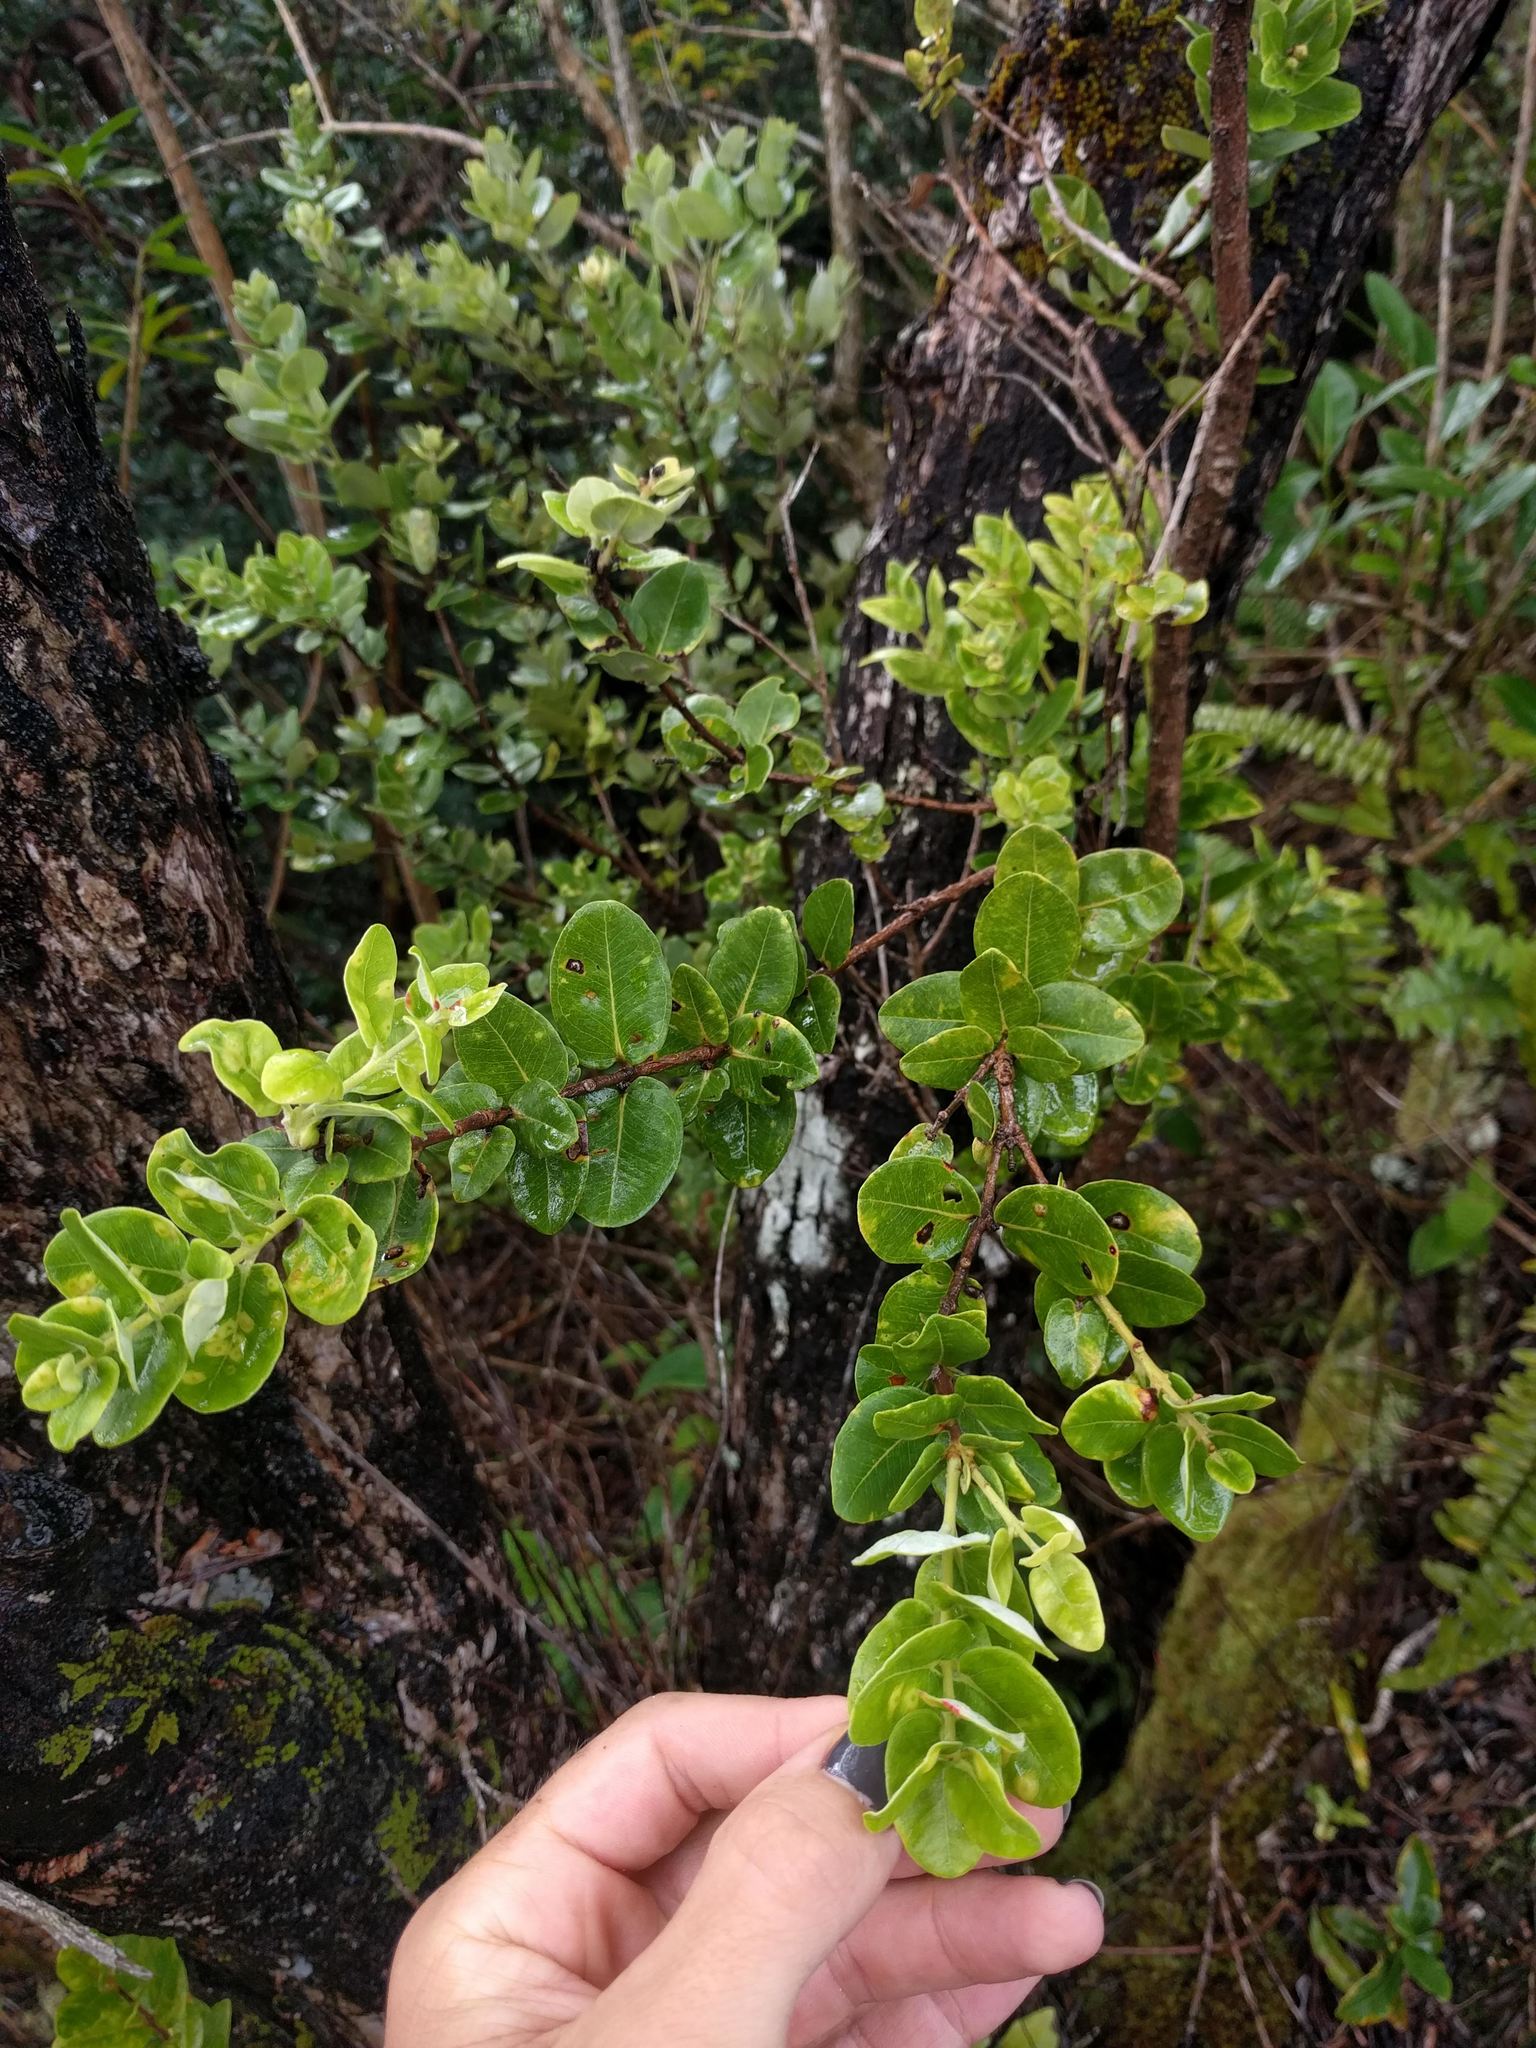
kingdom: Plantae
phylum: Tracheophyta
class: Magnoliopsida
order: Myrtales
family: Myrtaceae
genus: Metrosideros
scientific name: Metrosideros polymorpha
